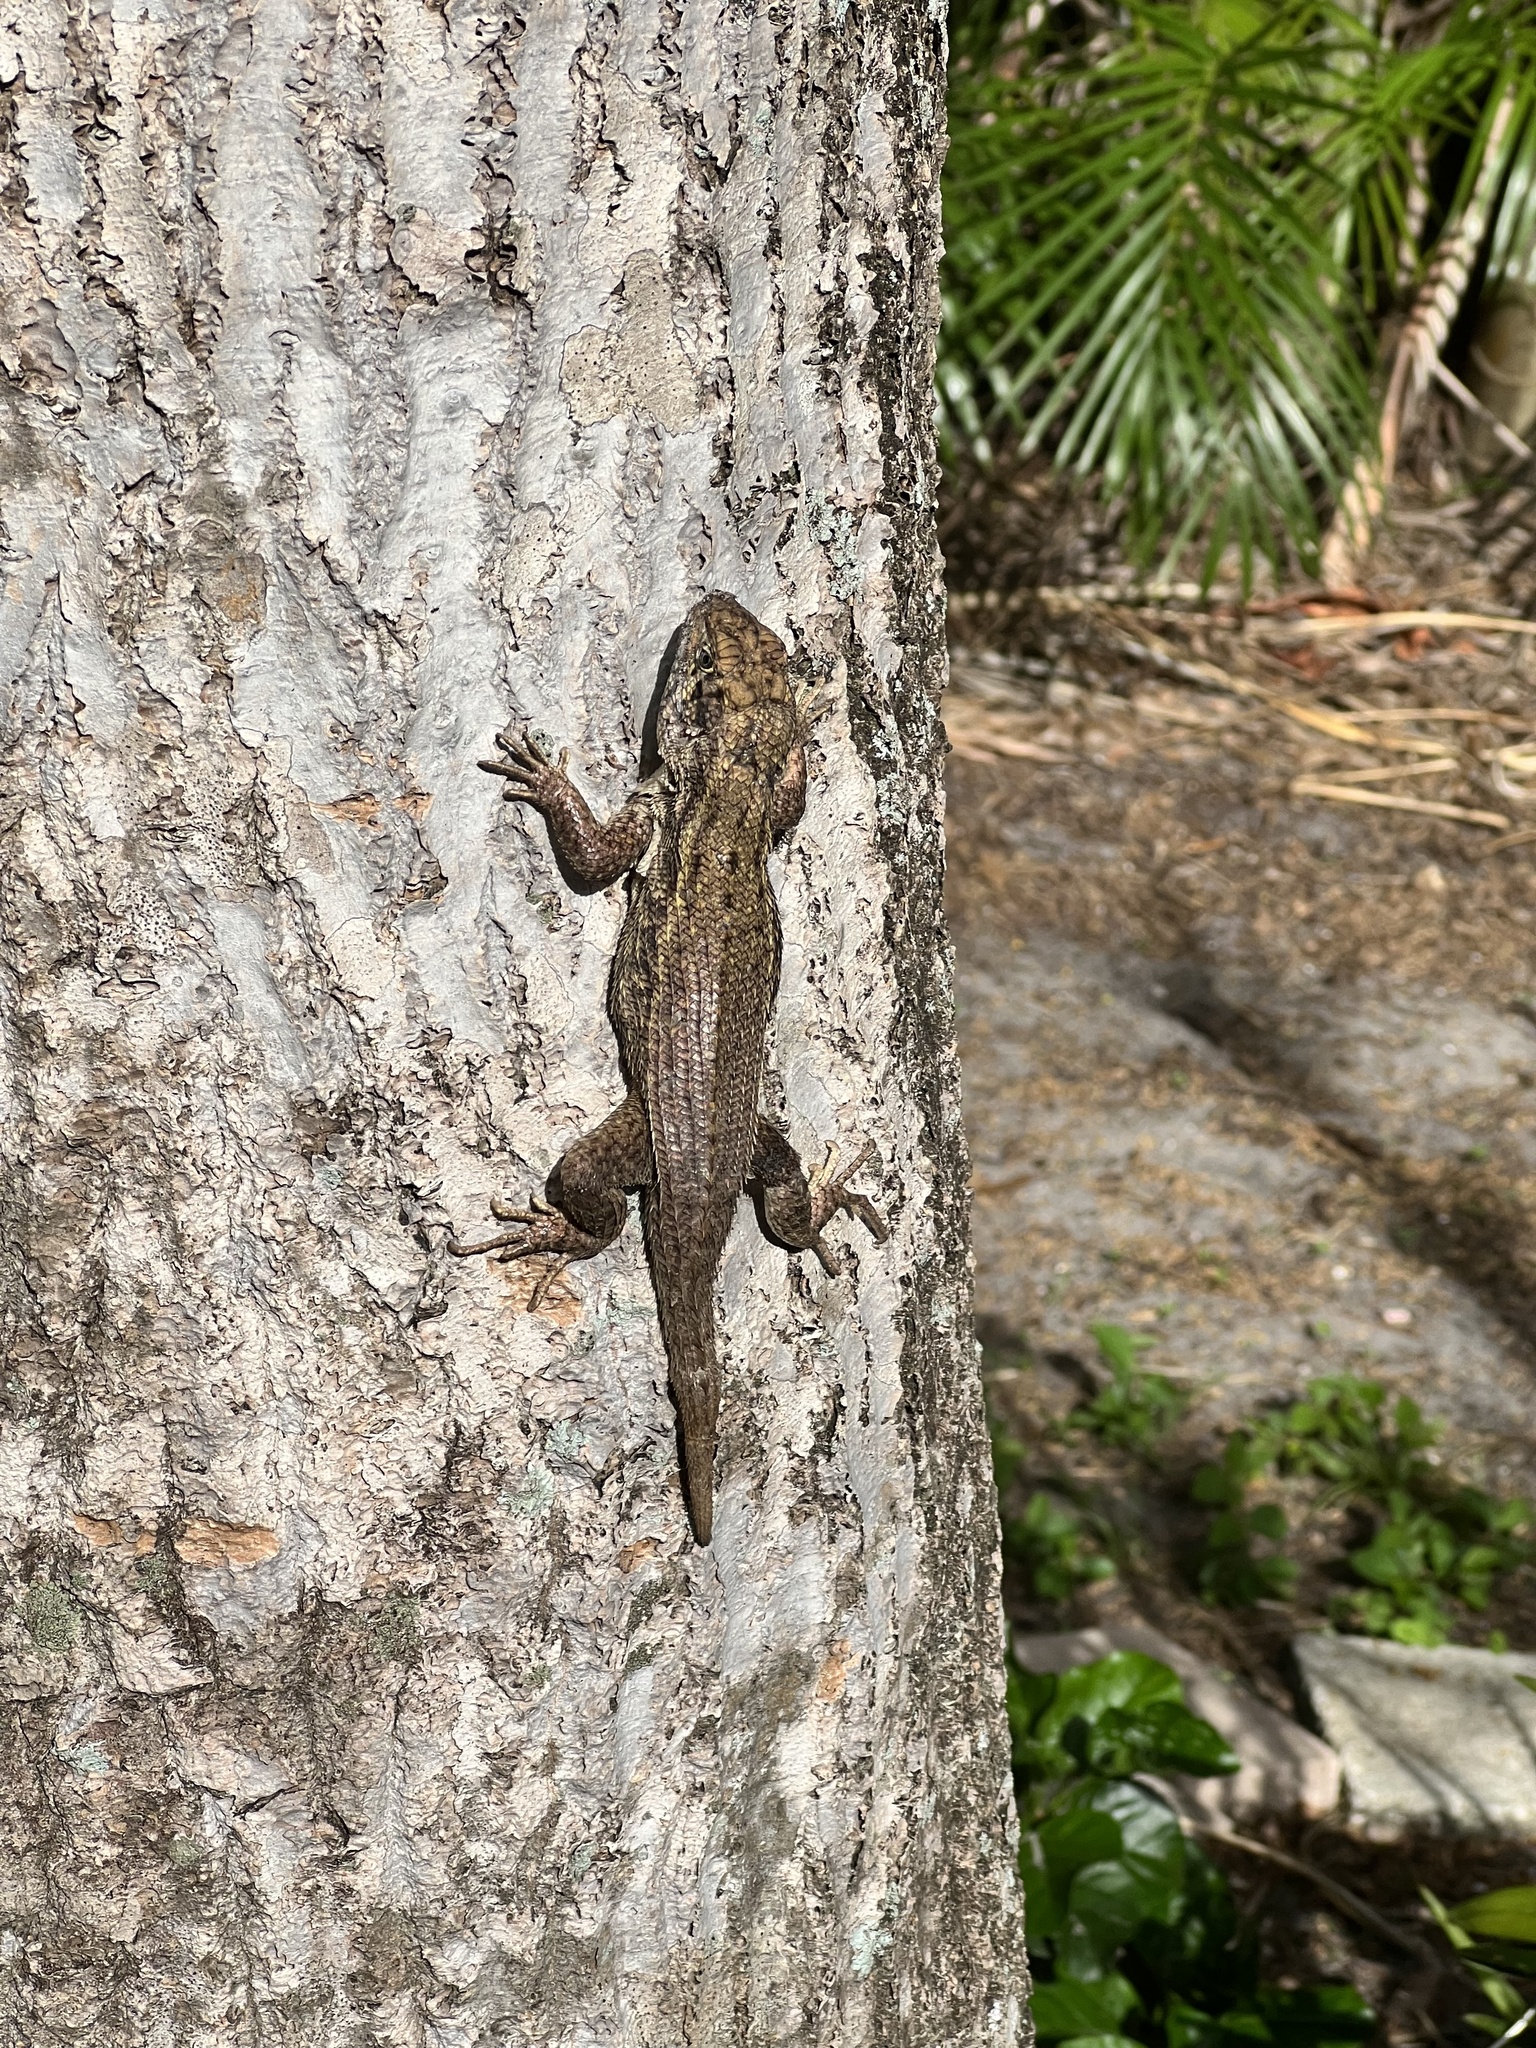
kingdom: Animalia
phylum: Chordata
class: Squamata
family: Leiocephalidae
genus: Leiocephalus
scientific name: Leiocephalus carinatus
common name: Northern curly-tailed lizard
